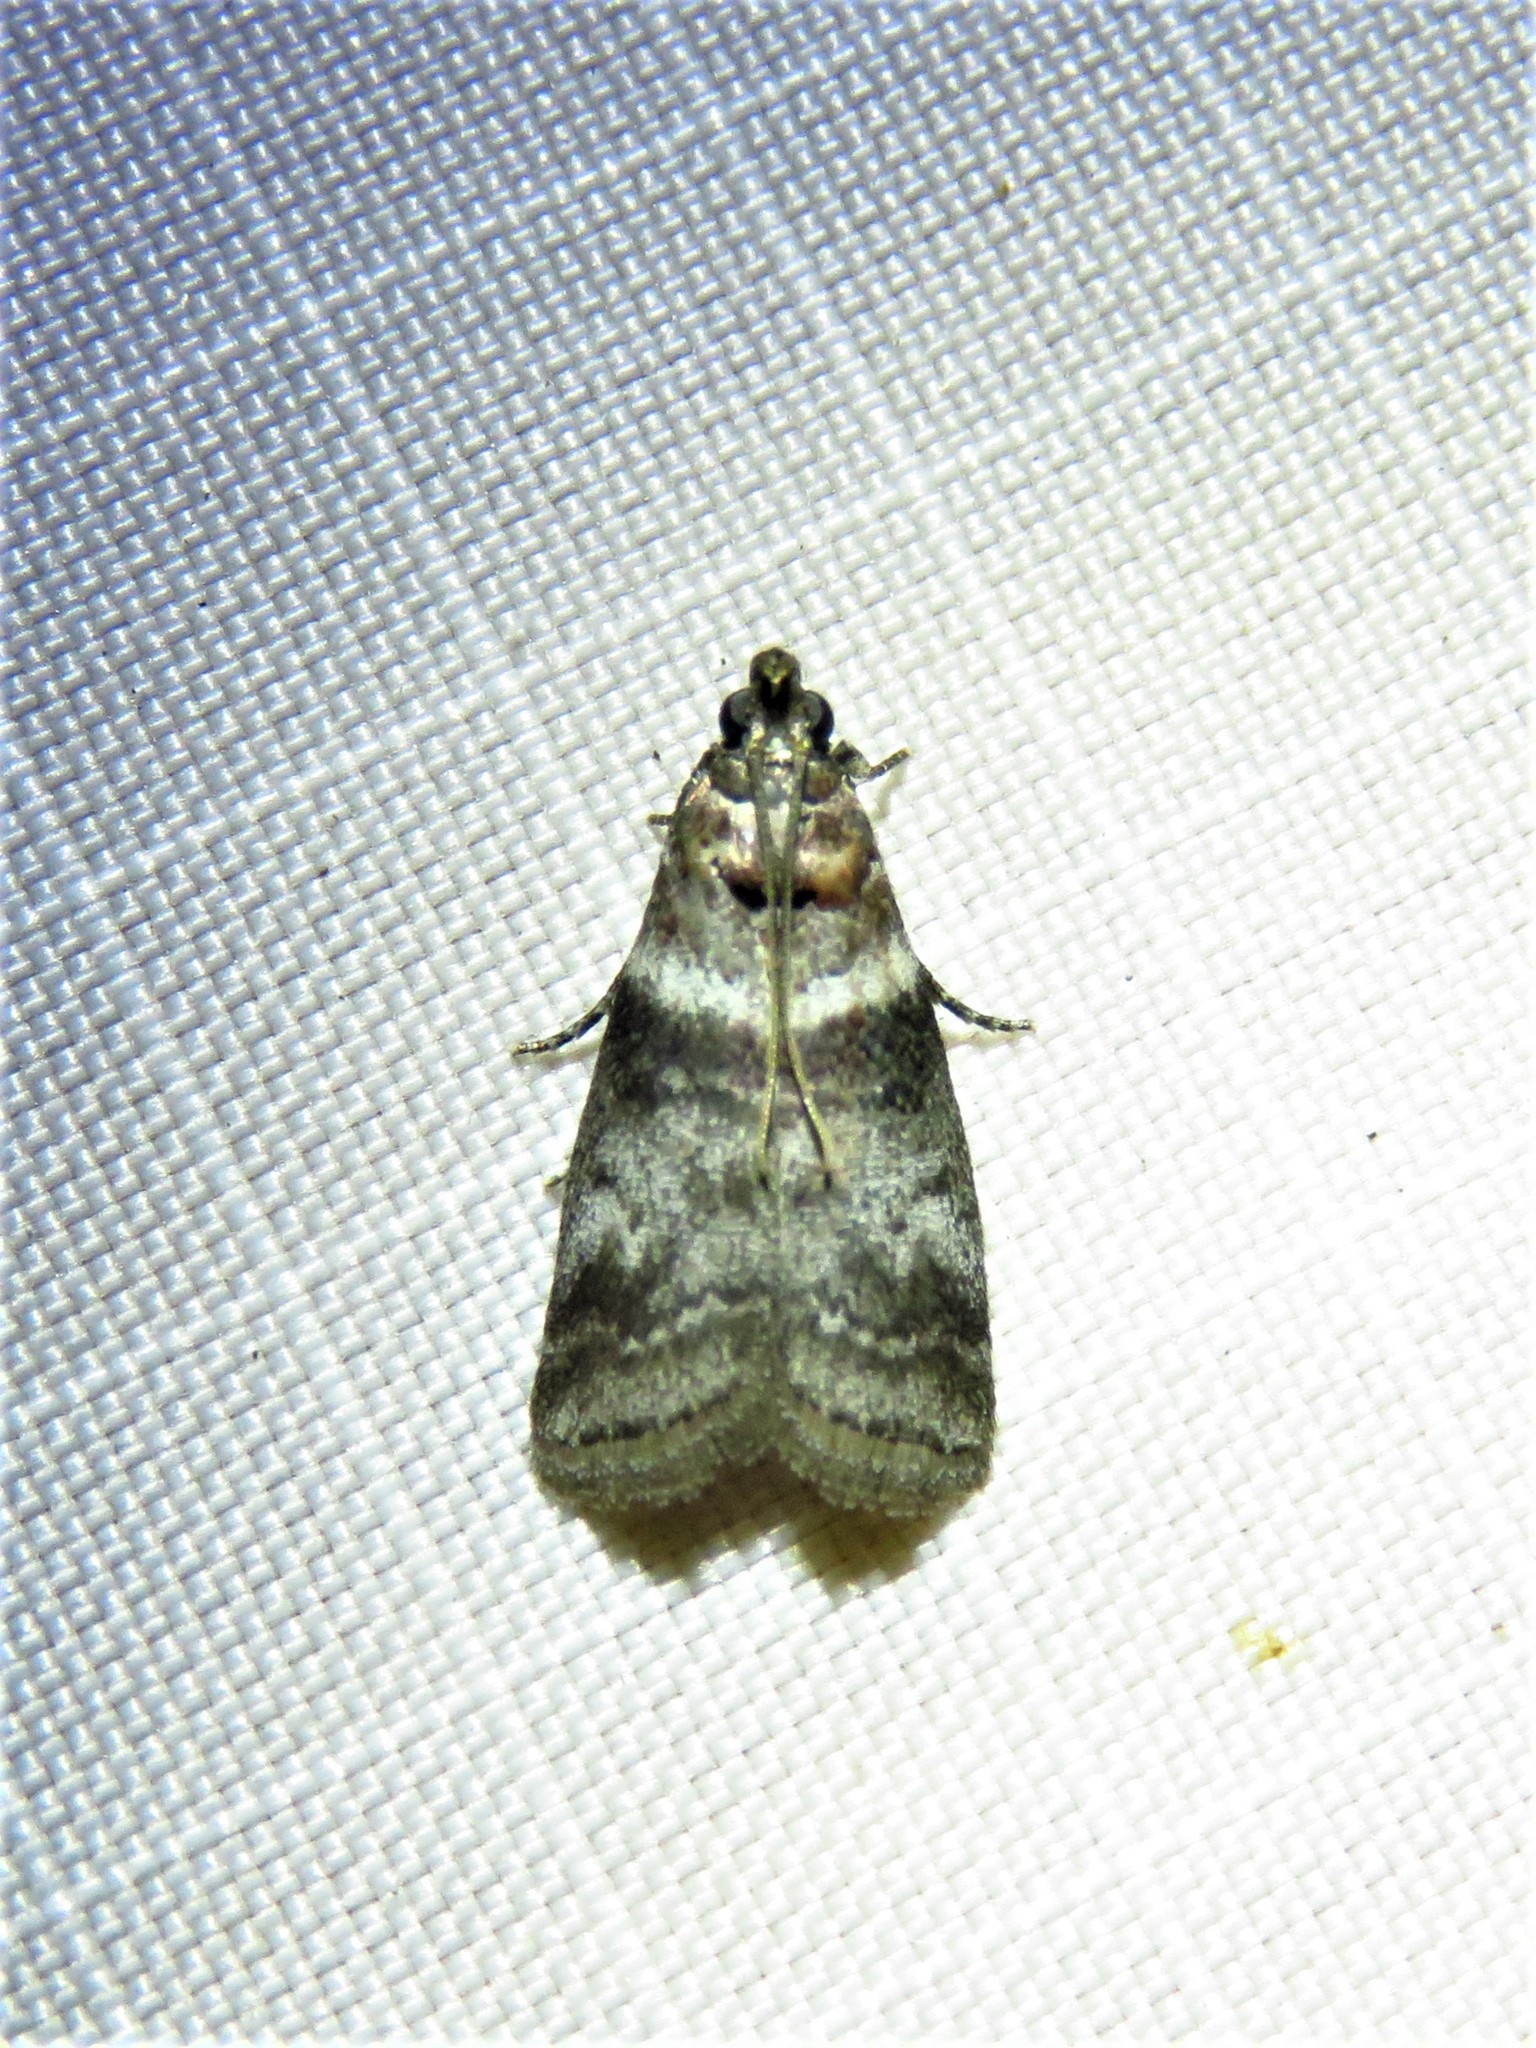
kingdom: Animalia
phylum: Arthropoda
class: Insecta
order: Lepidoptera
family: Pyralidae
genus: Sciota
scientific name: Sciota uvinella
